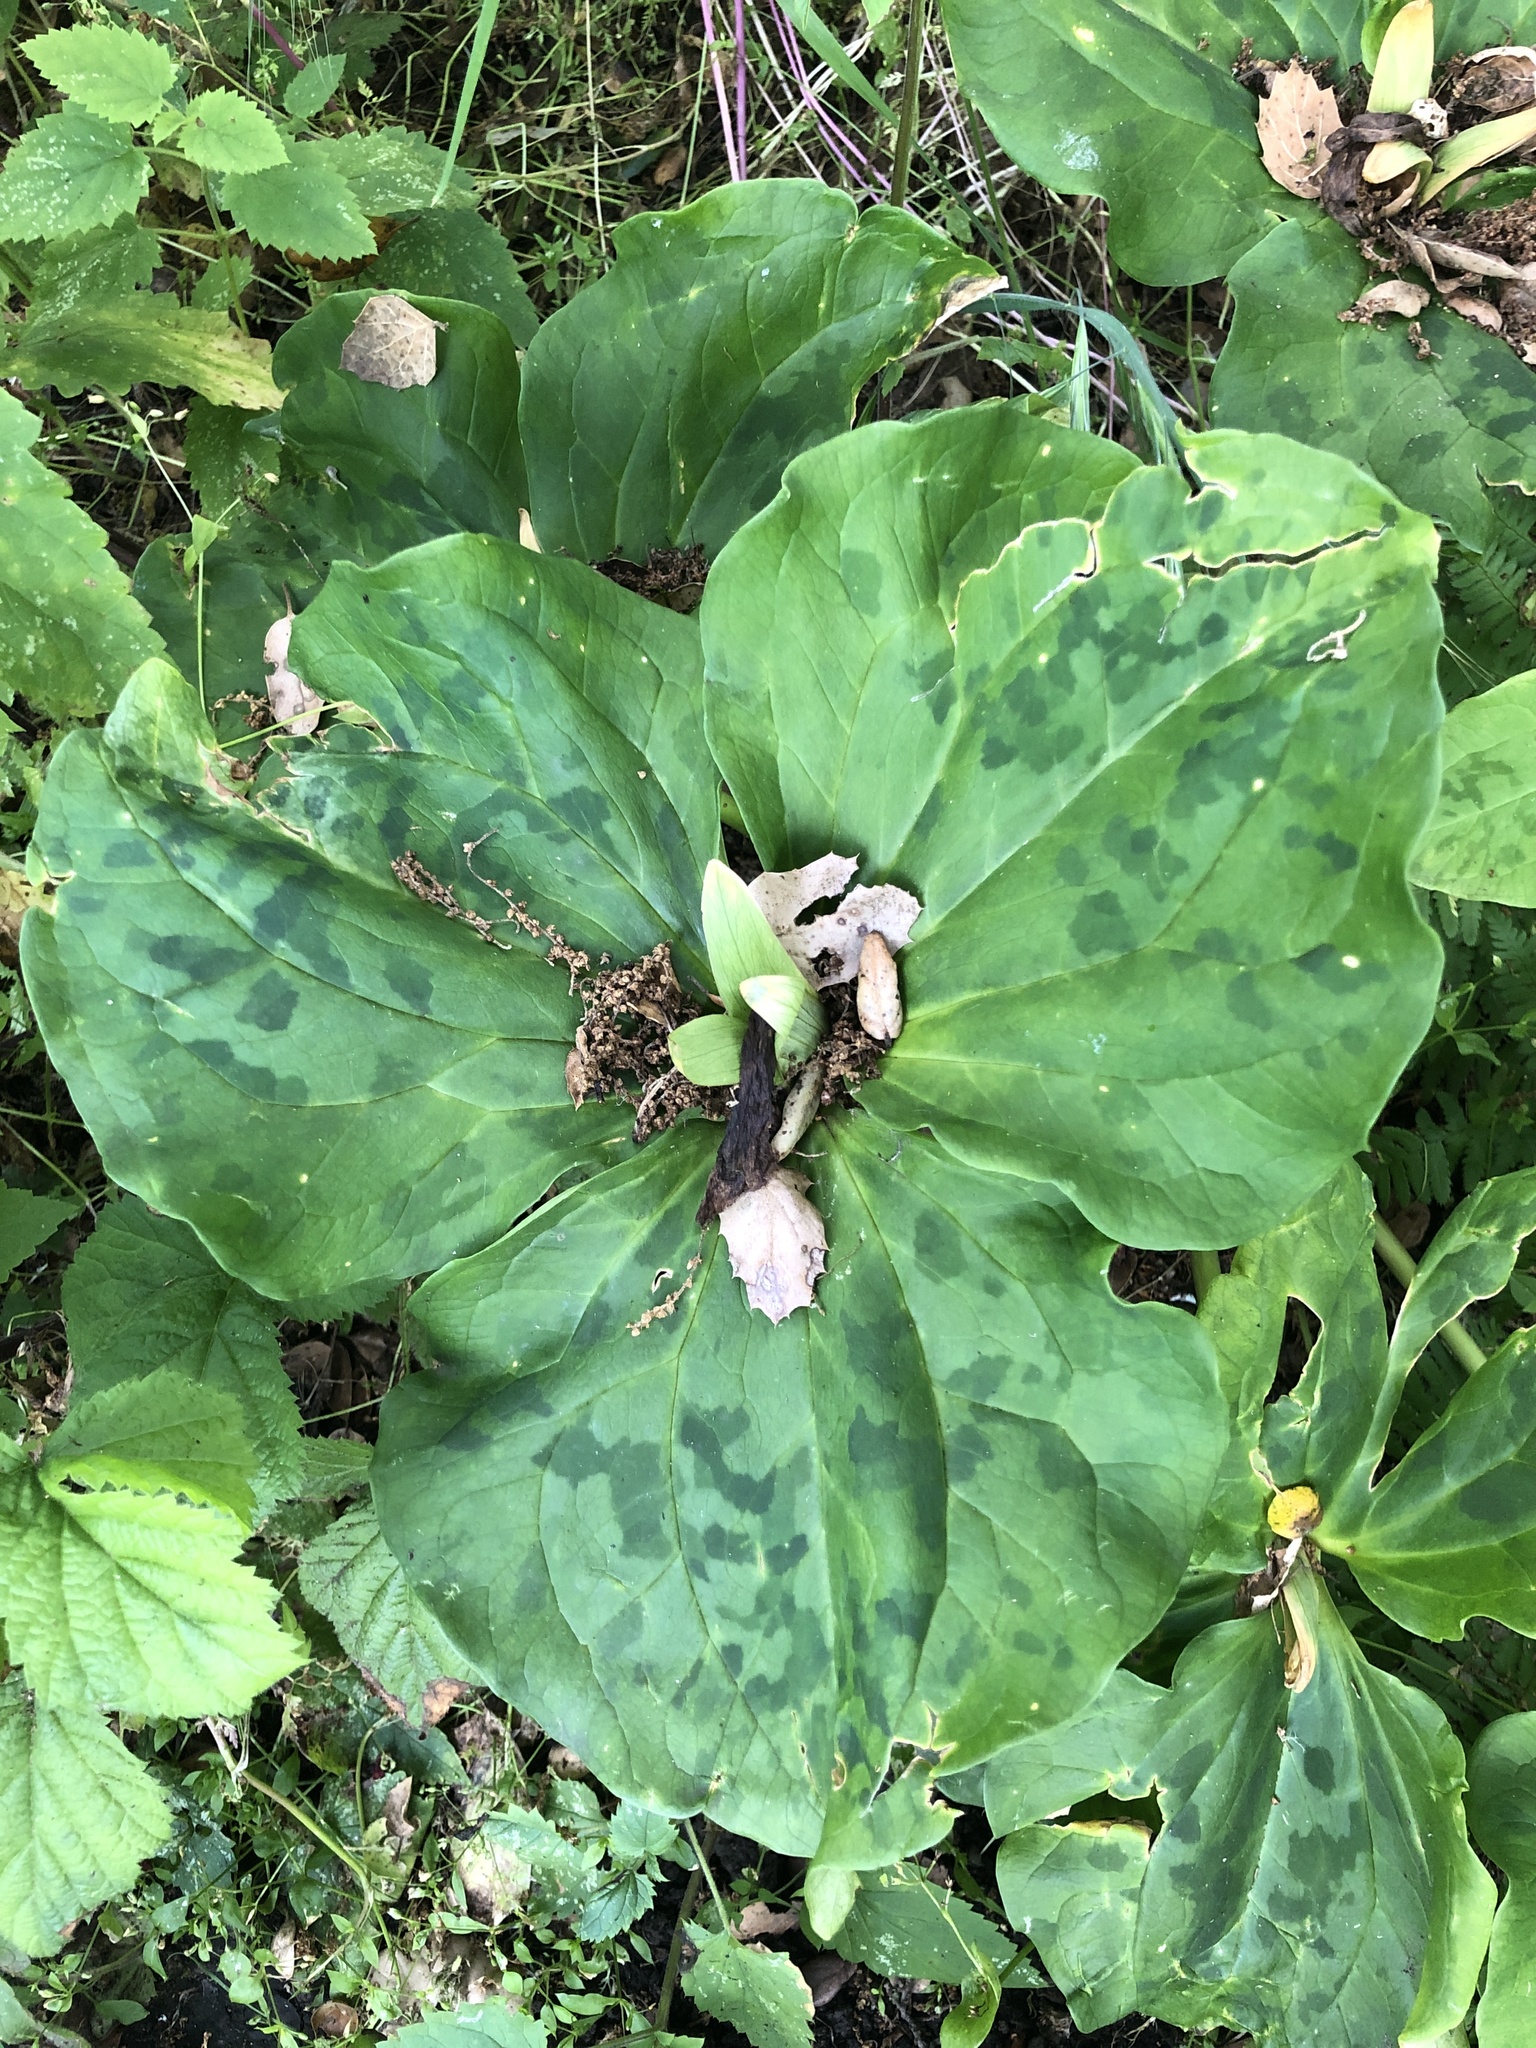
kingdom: Plantae
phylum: Tracheophyta
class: Liliopsida
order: Liliales
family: Melanthiaceae
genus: Trillium
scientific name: Trillium chloropetalum
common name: Giant trillium
